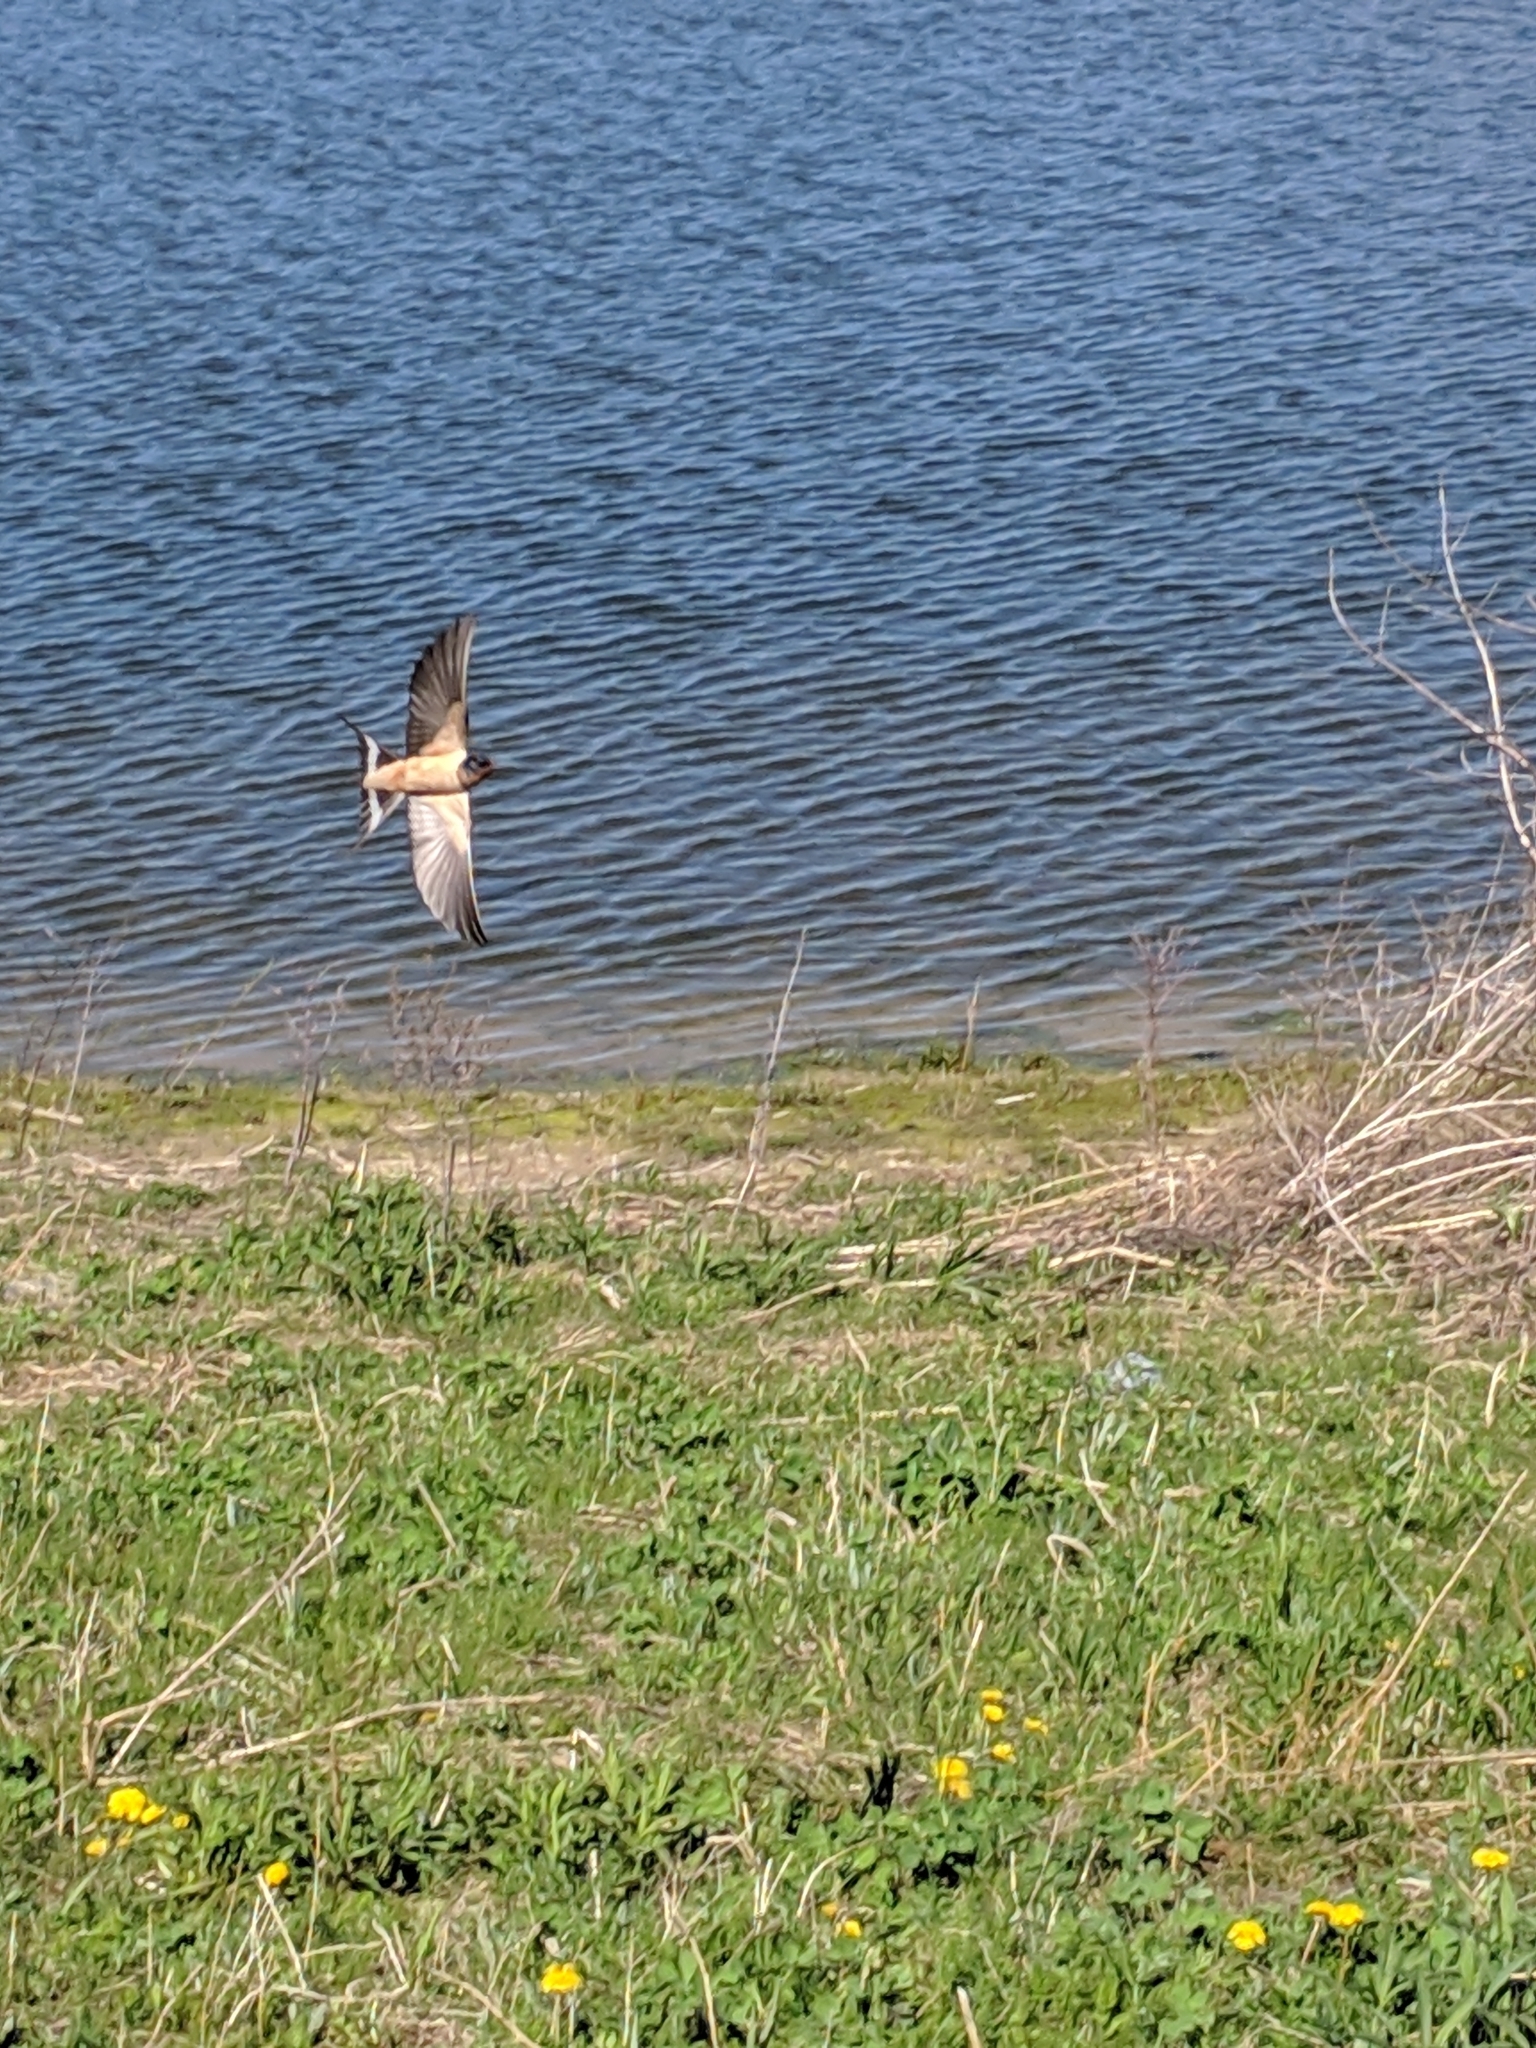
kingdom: Animalia
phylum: Chordata
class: Aves
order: Passeriformes
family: Hirundinidae
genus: Hirundo
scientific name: Hirundo rustica
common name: Barn swallow
